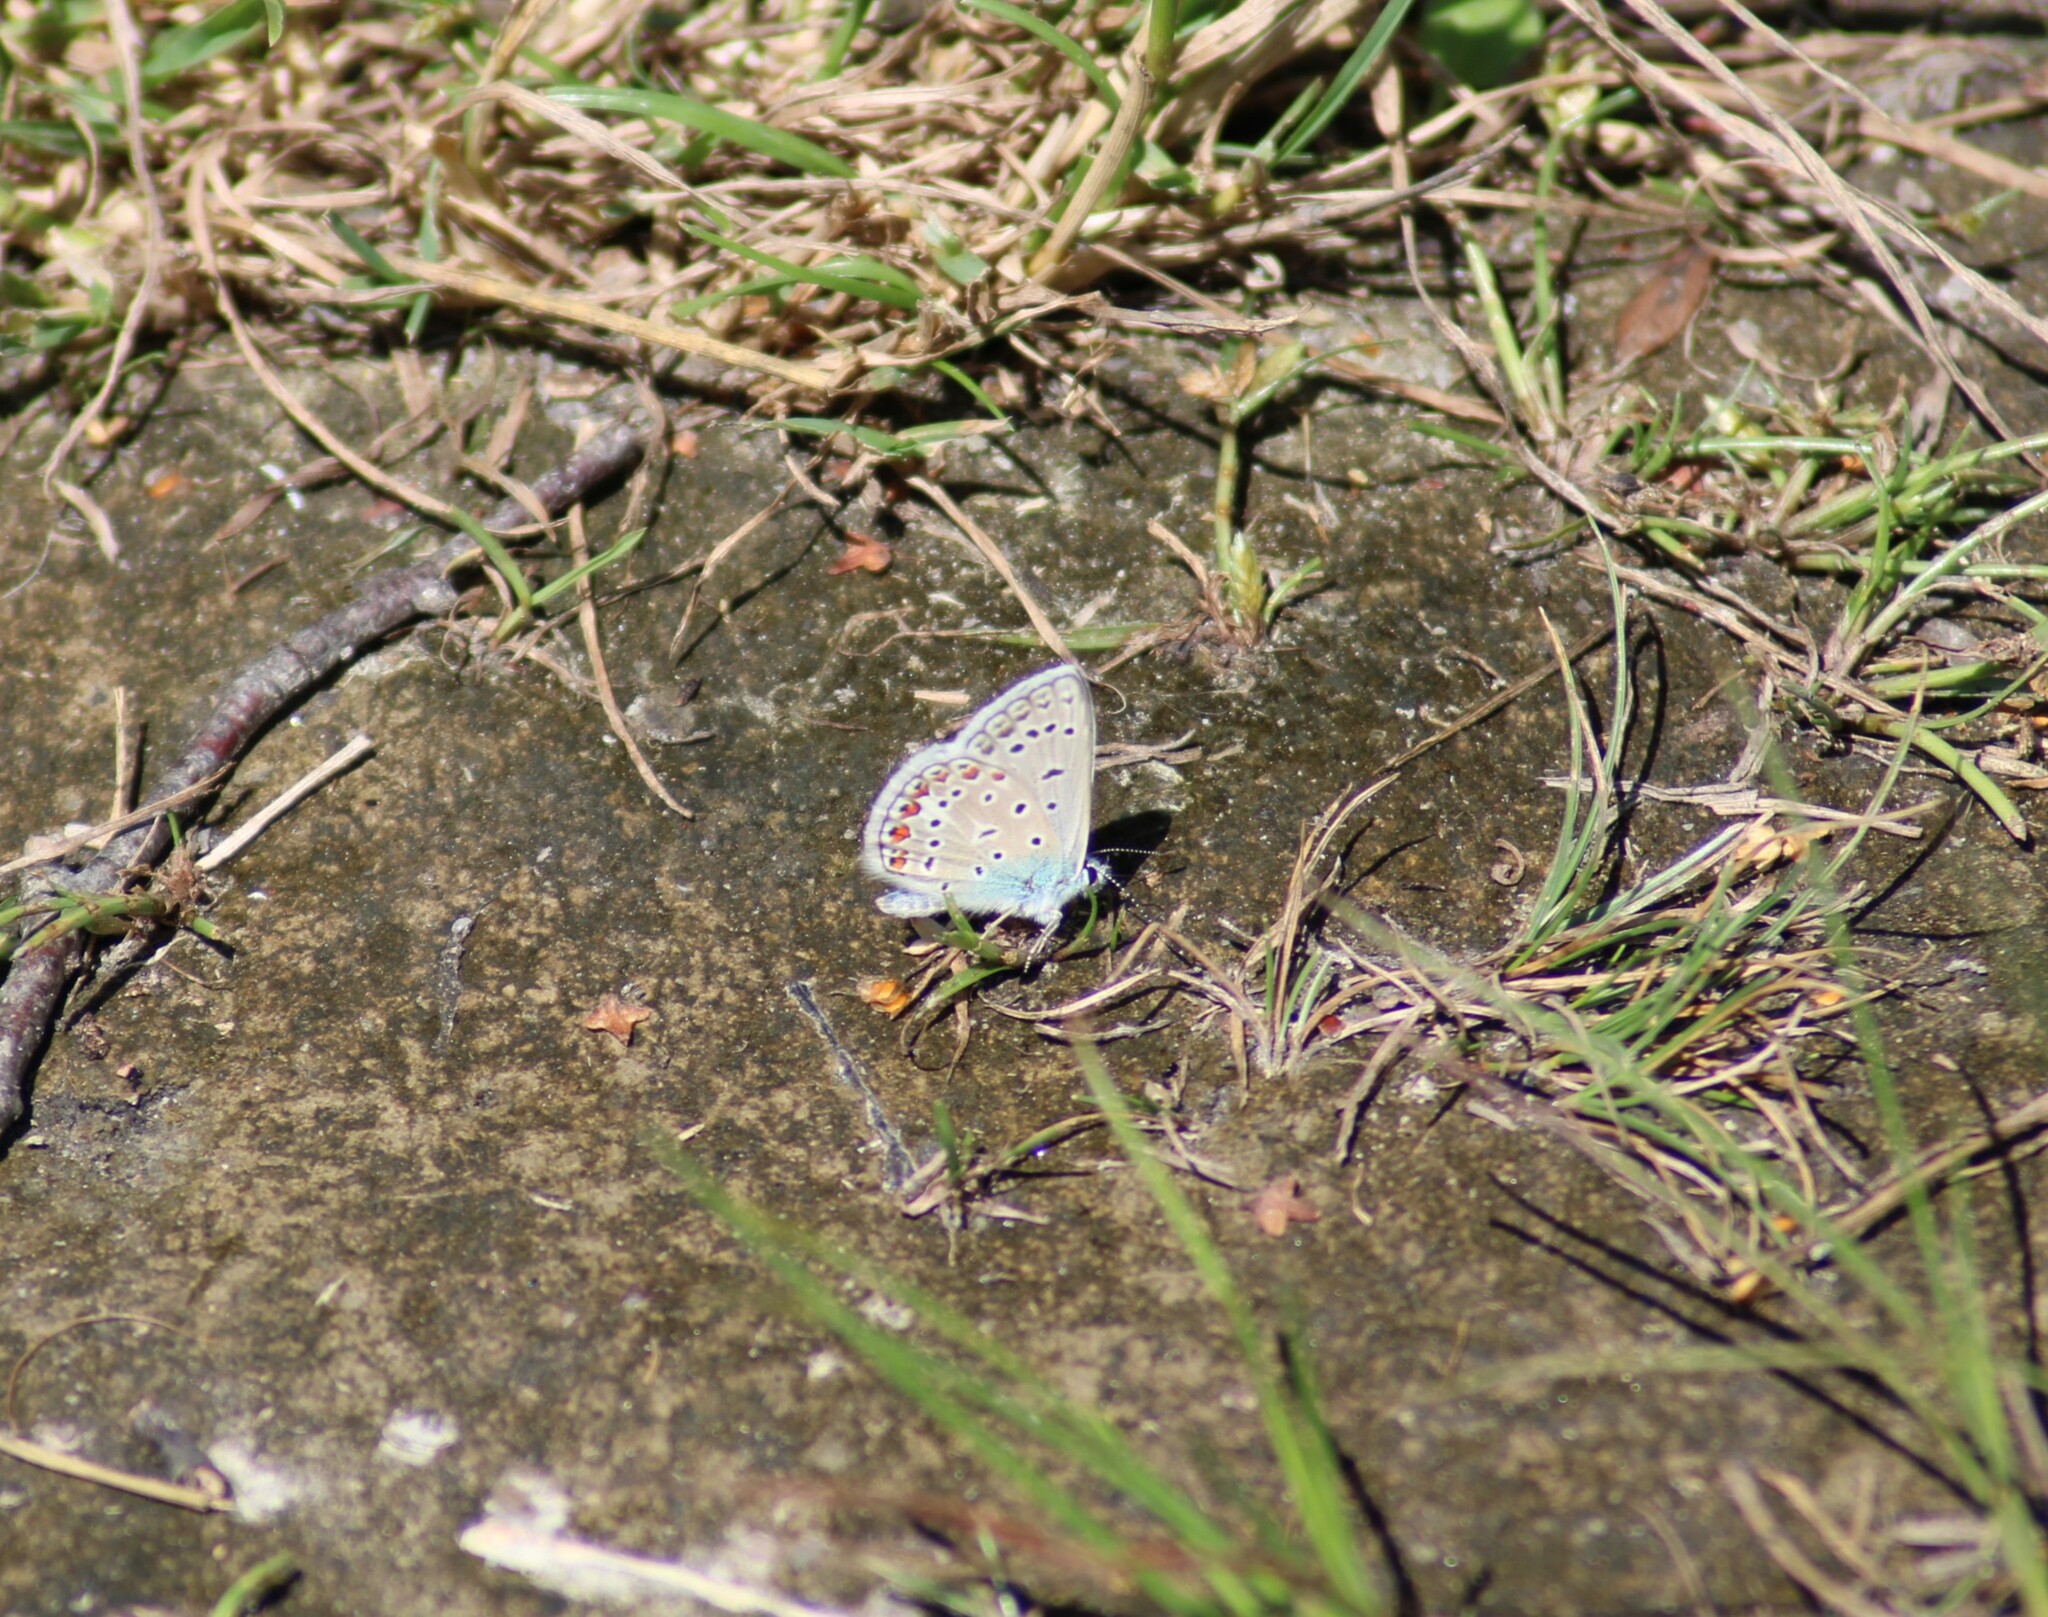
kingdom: Animalia
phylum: Arthropoda
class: Insecta
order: Lepidoptera
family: Lycaenidae
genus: Polyommatus
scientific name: Polyommatus icarus
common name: Common blue
